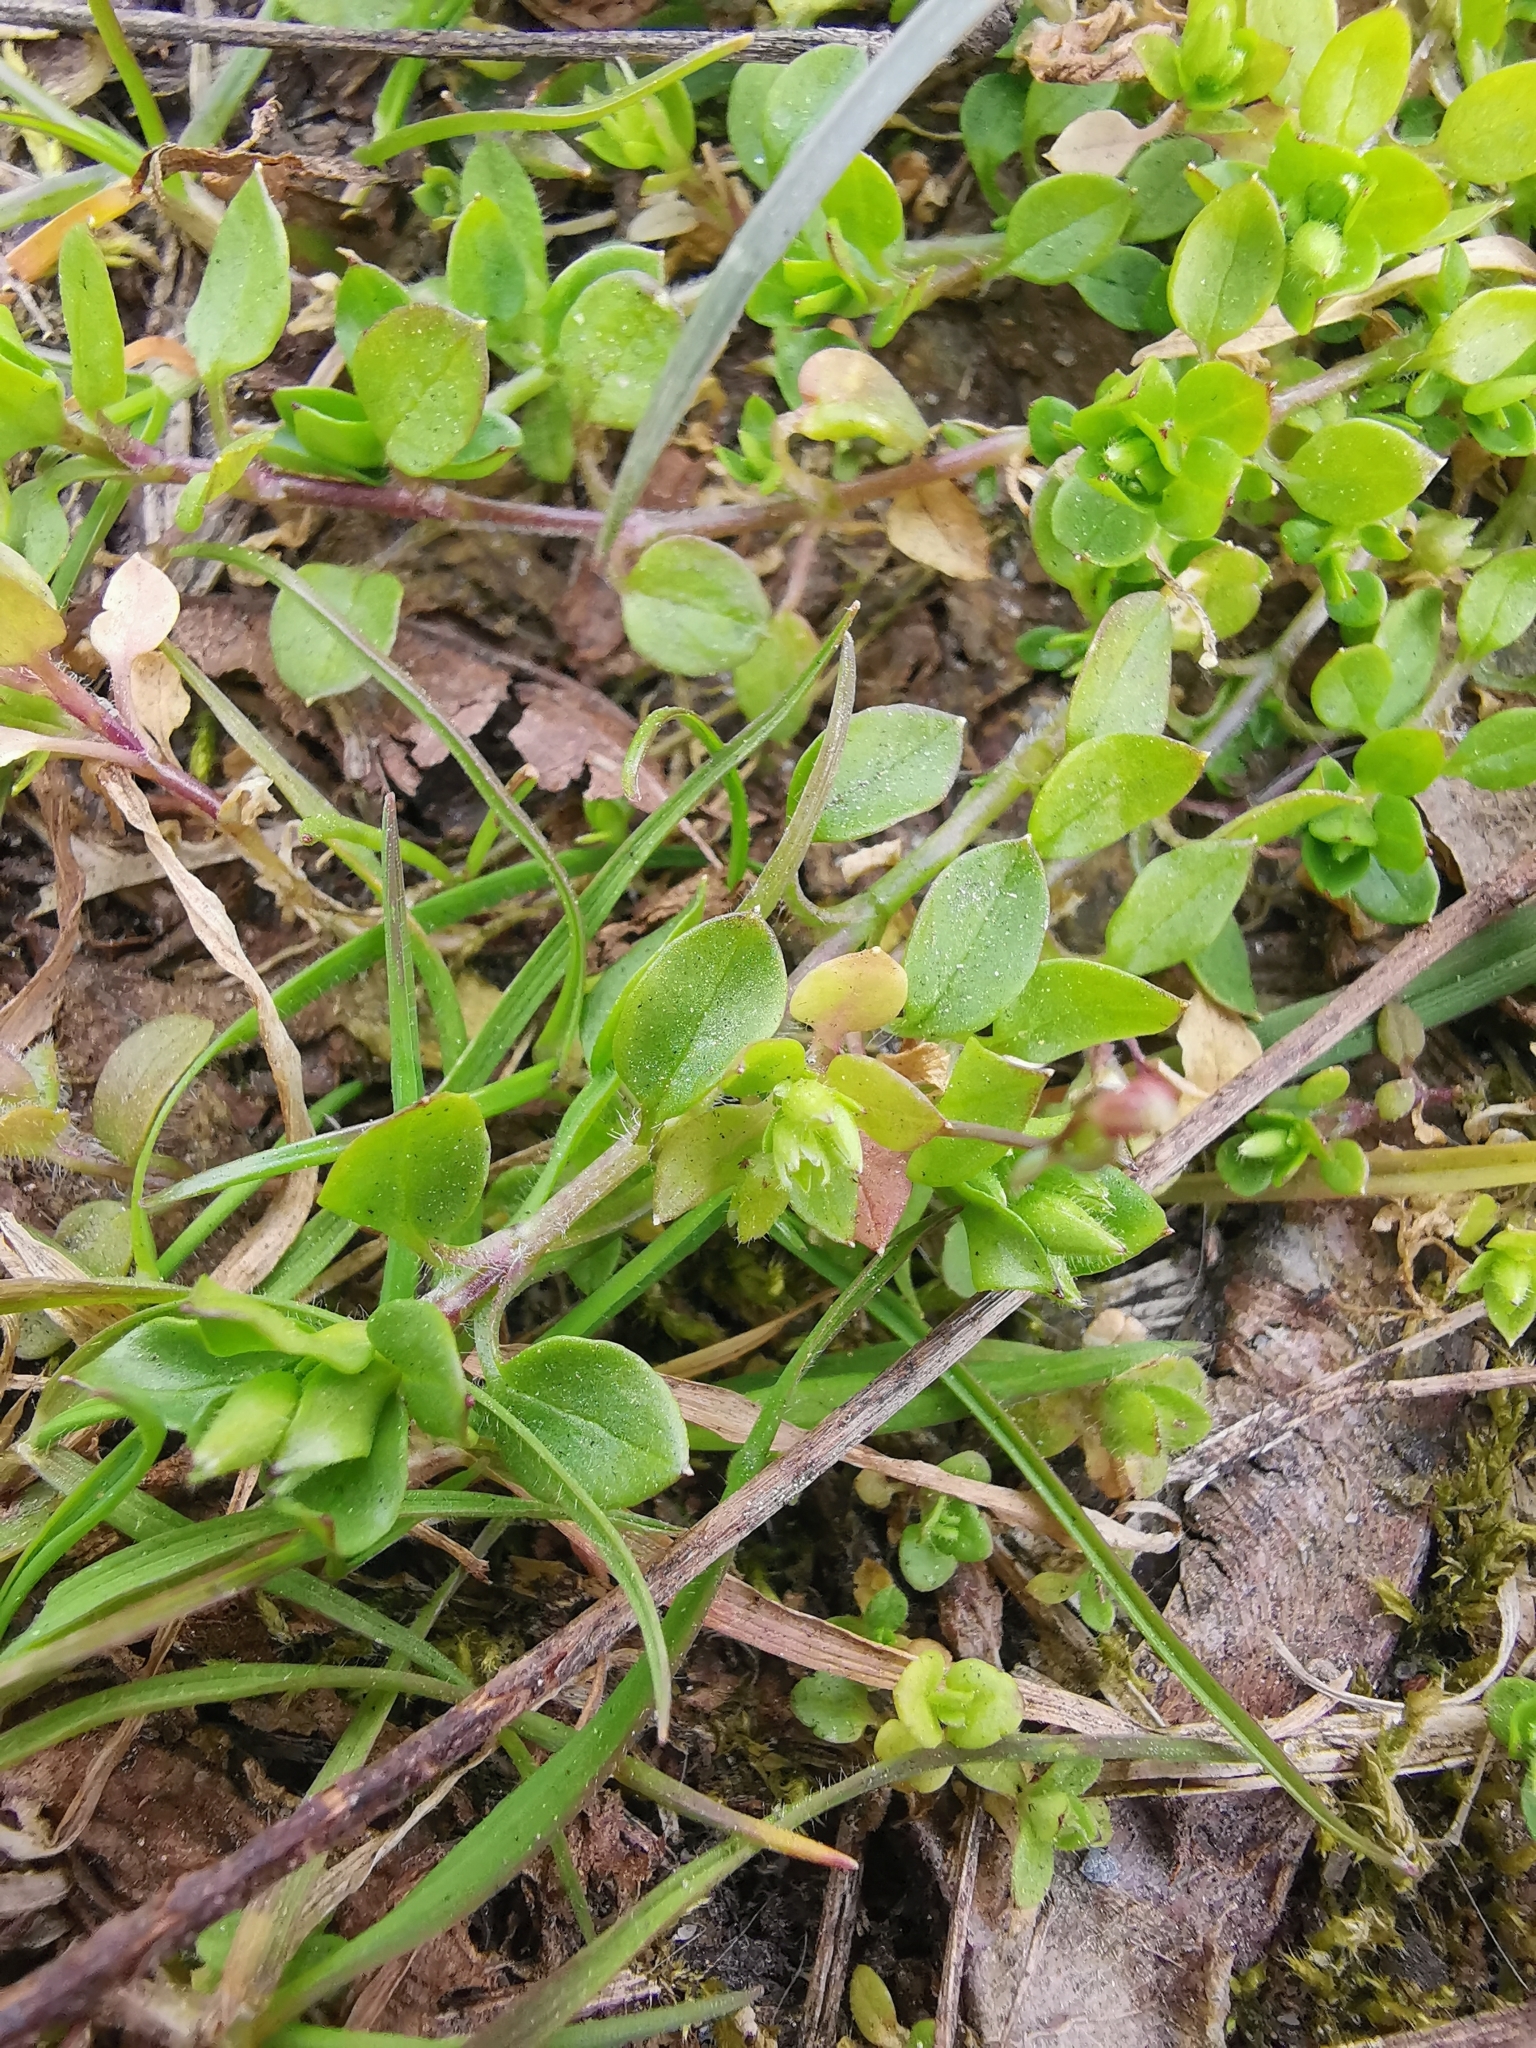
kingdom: Plantae
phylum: Tracheophyta
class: Magnoliopsida
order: Caryophyllales
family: Caryophyllaceae
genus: Stellaria
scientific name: Stellaria media
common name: Common chickweed
